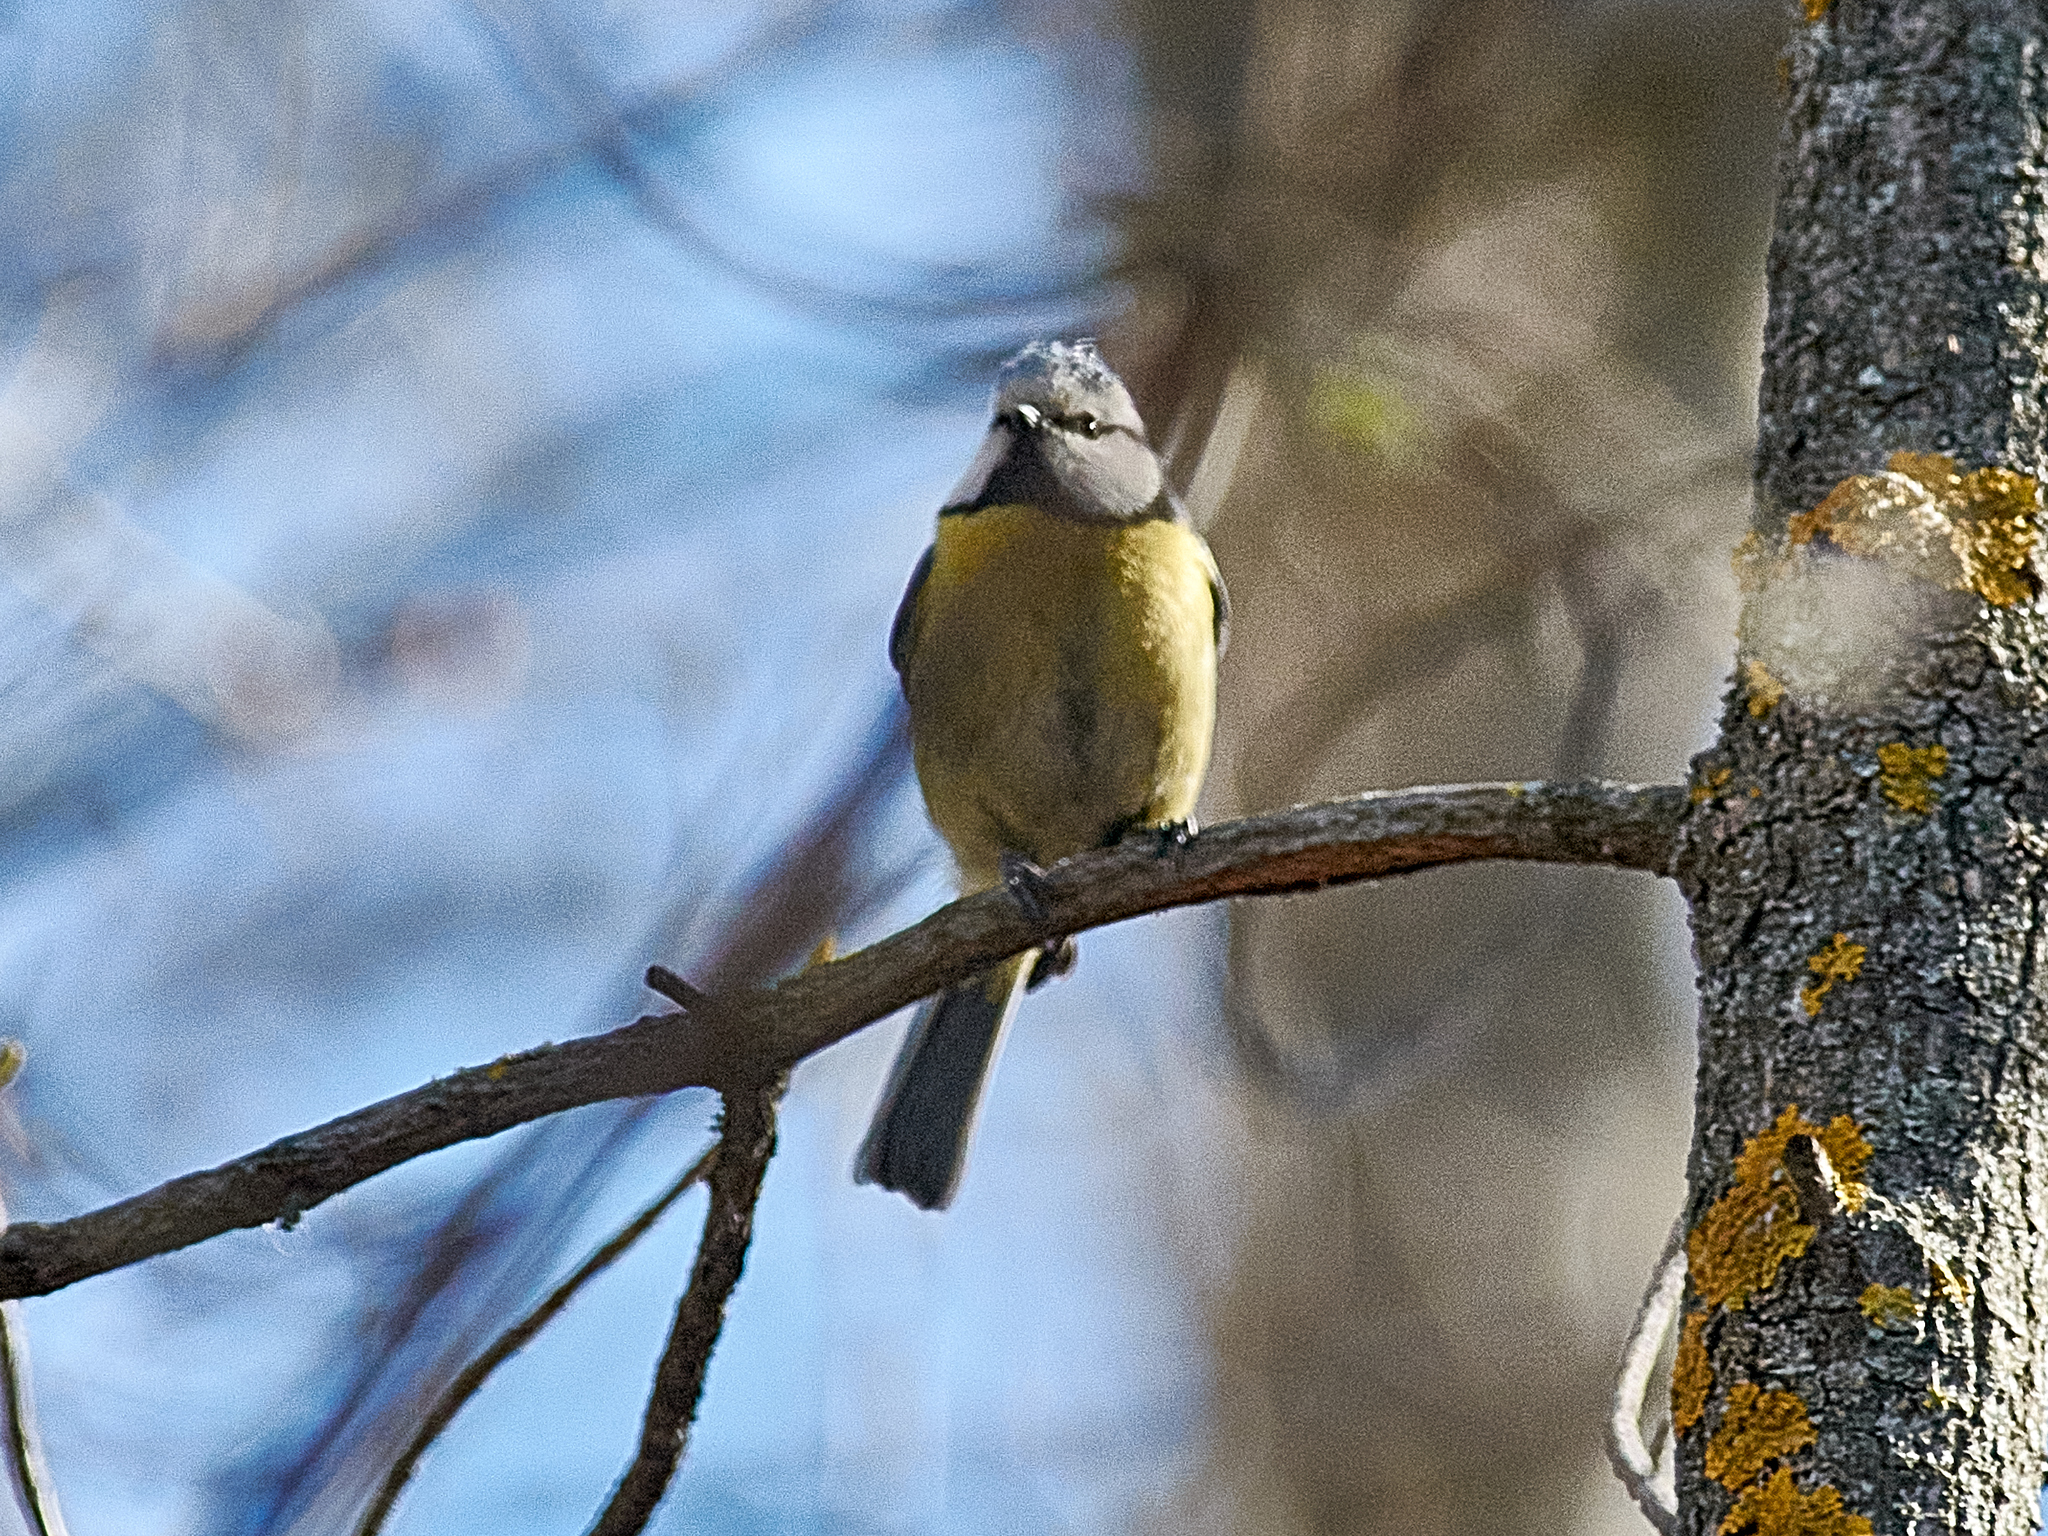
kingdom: Animalia
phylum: Chordata
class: Aves
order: Passeriformes
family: Paridae
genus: Cyanistes
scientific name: Cyanistes caeruleus
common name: Eurasian blue tit
